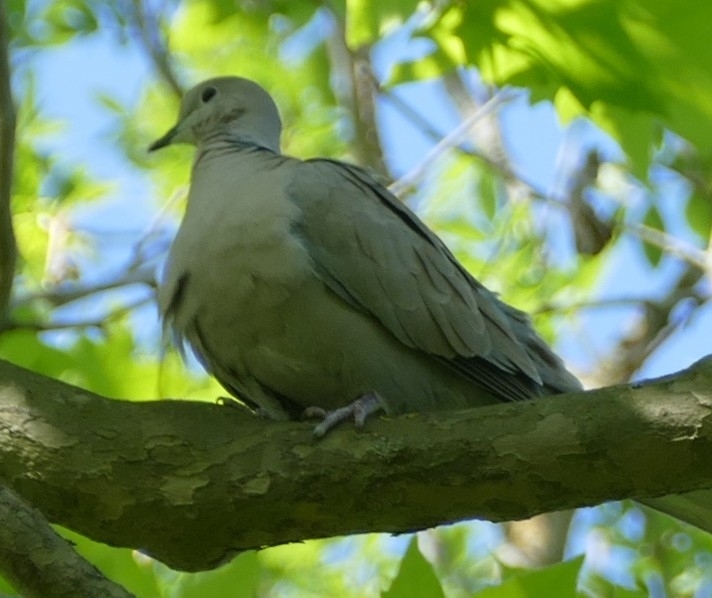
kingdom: Animalia
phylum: Chordata
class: Aves
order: Columbiformes
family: Columbidae
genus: Streptopelia
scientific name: Streptopelia decaocto
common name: Eurasian collared dove
